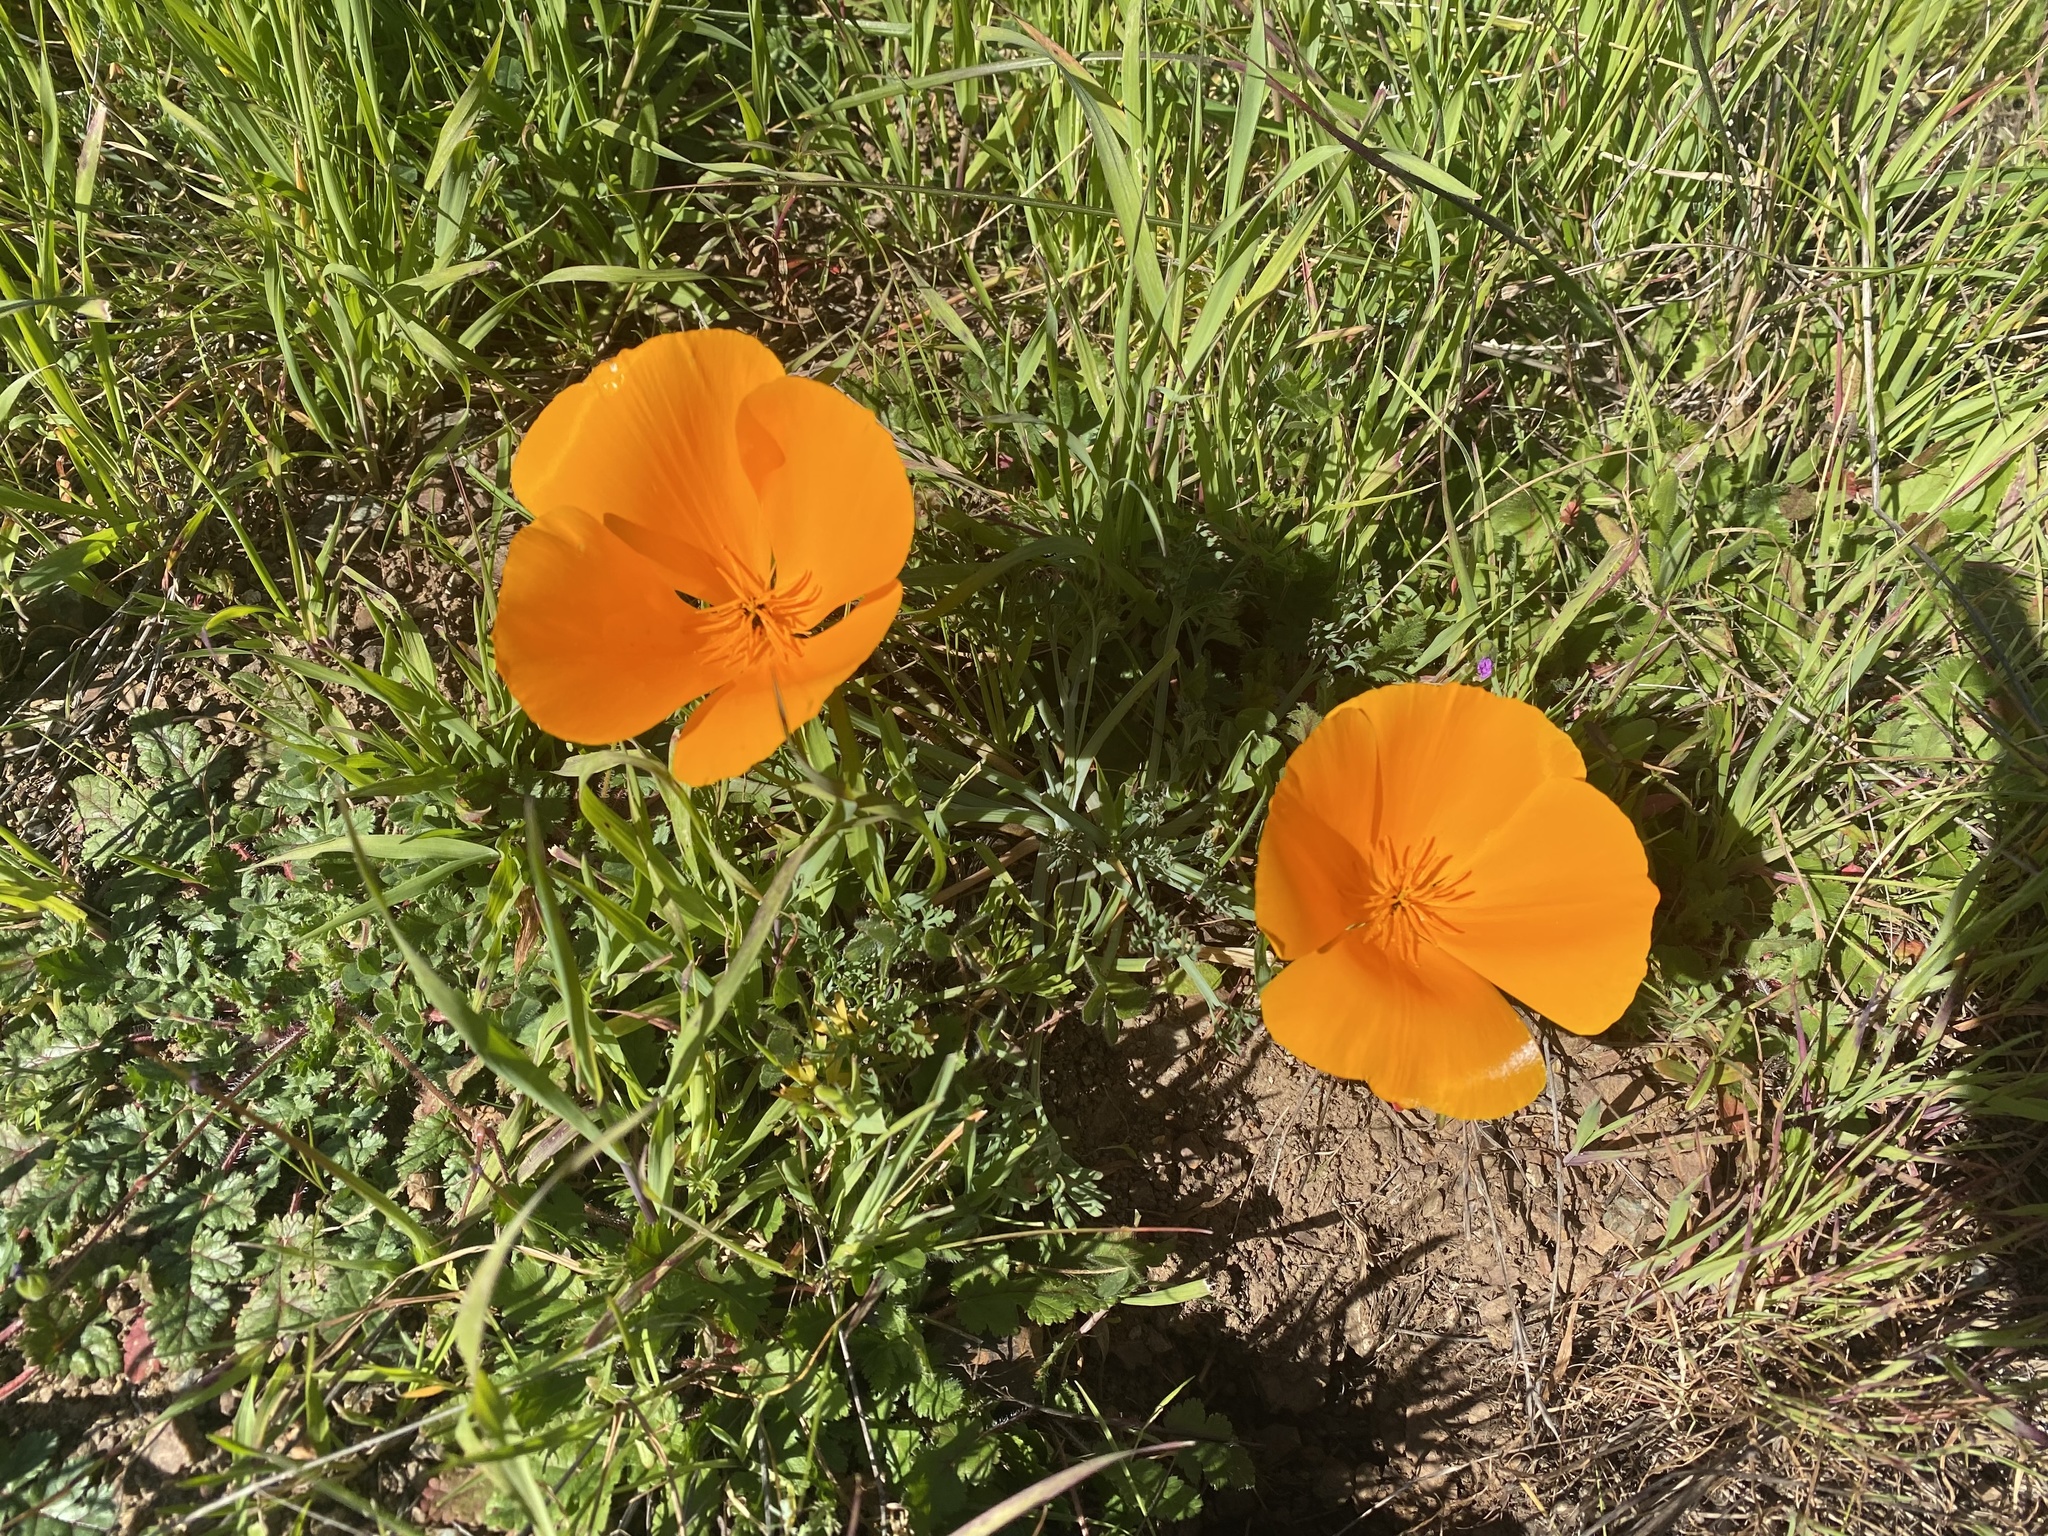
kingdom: Plantae
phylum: Tracheophyta
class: Magnoliopsida
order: Ranunculales
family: Papaveraceae
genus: Eschscholzia
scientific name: Eschscholzia californica
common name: California poppy
